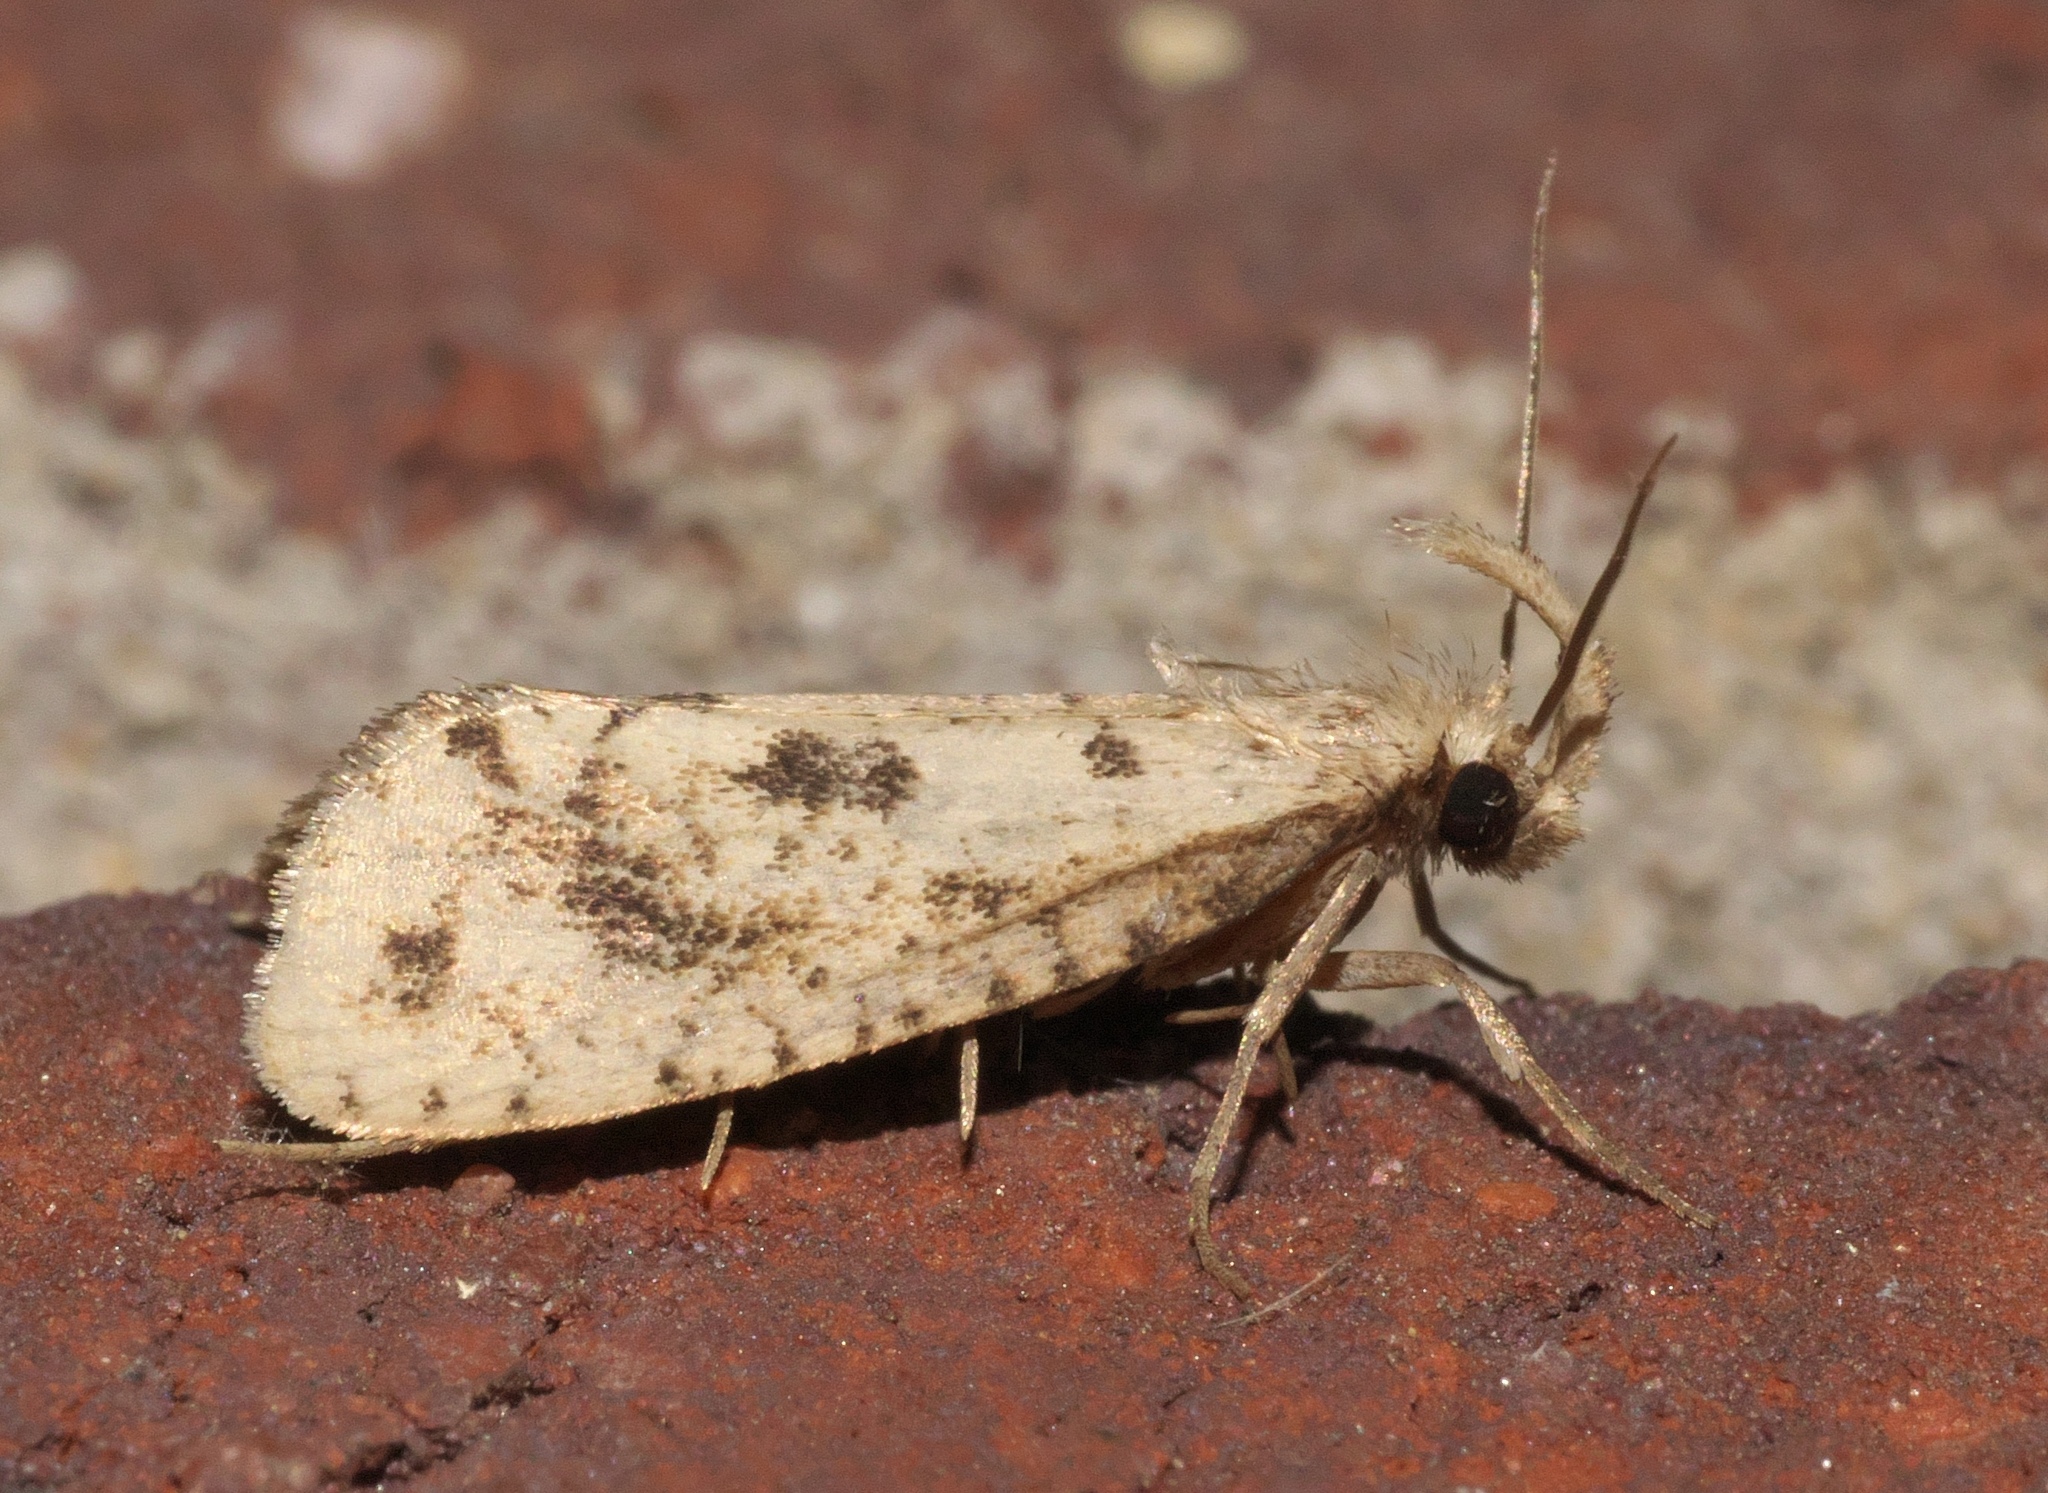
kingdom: Animalia
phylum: Arthropoda
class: Insecta
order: Lepidoptera
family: Tineidae
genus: Acrolophus
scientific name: Acrolophus mortipennella
